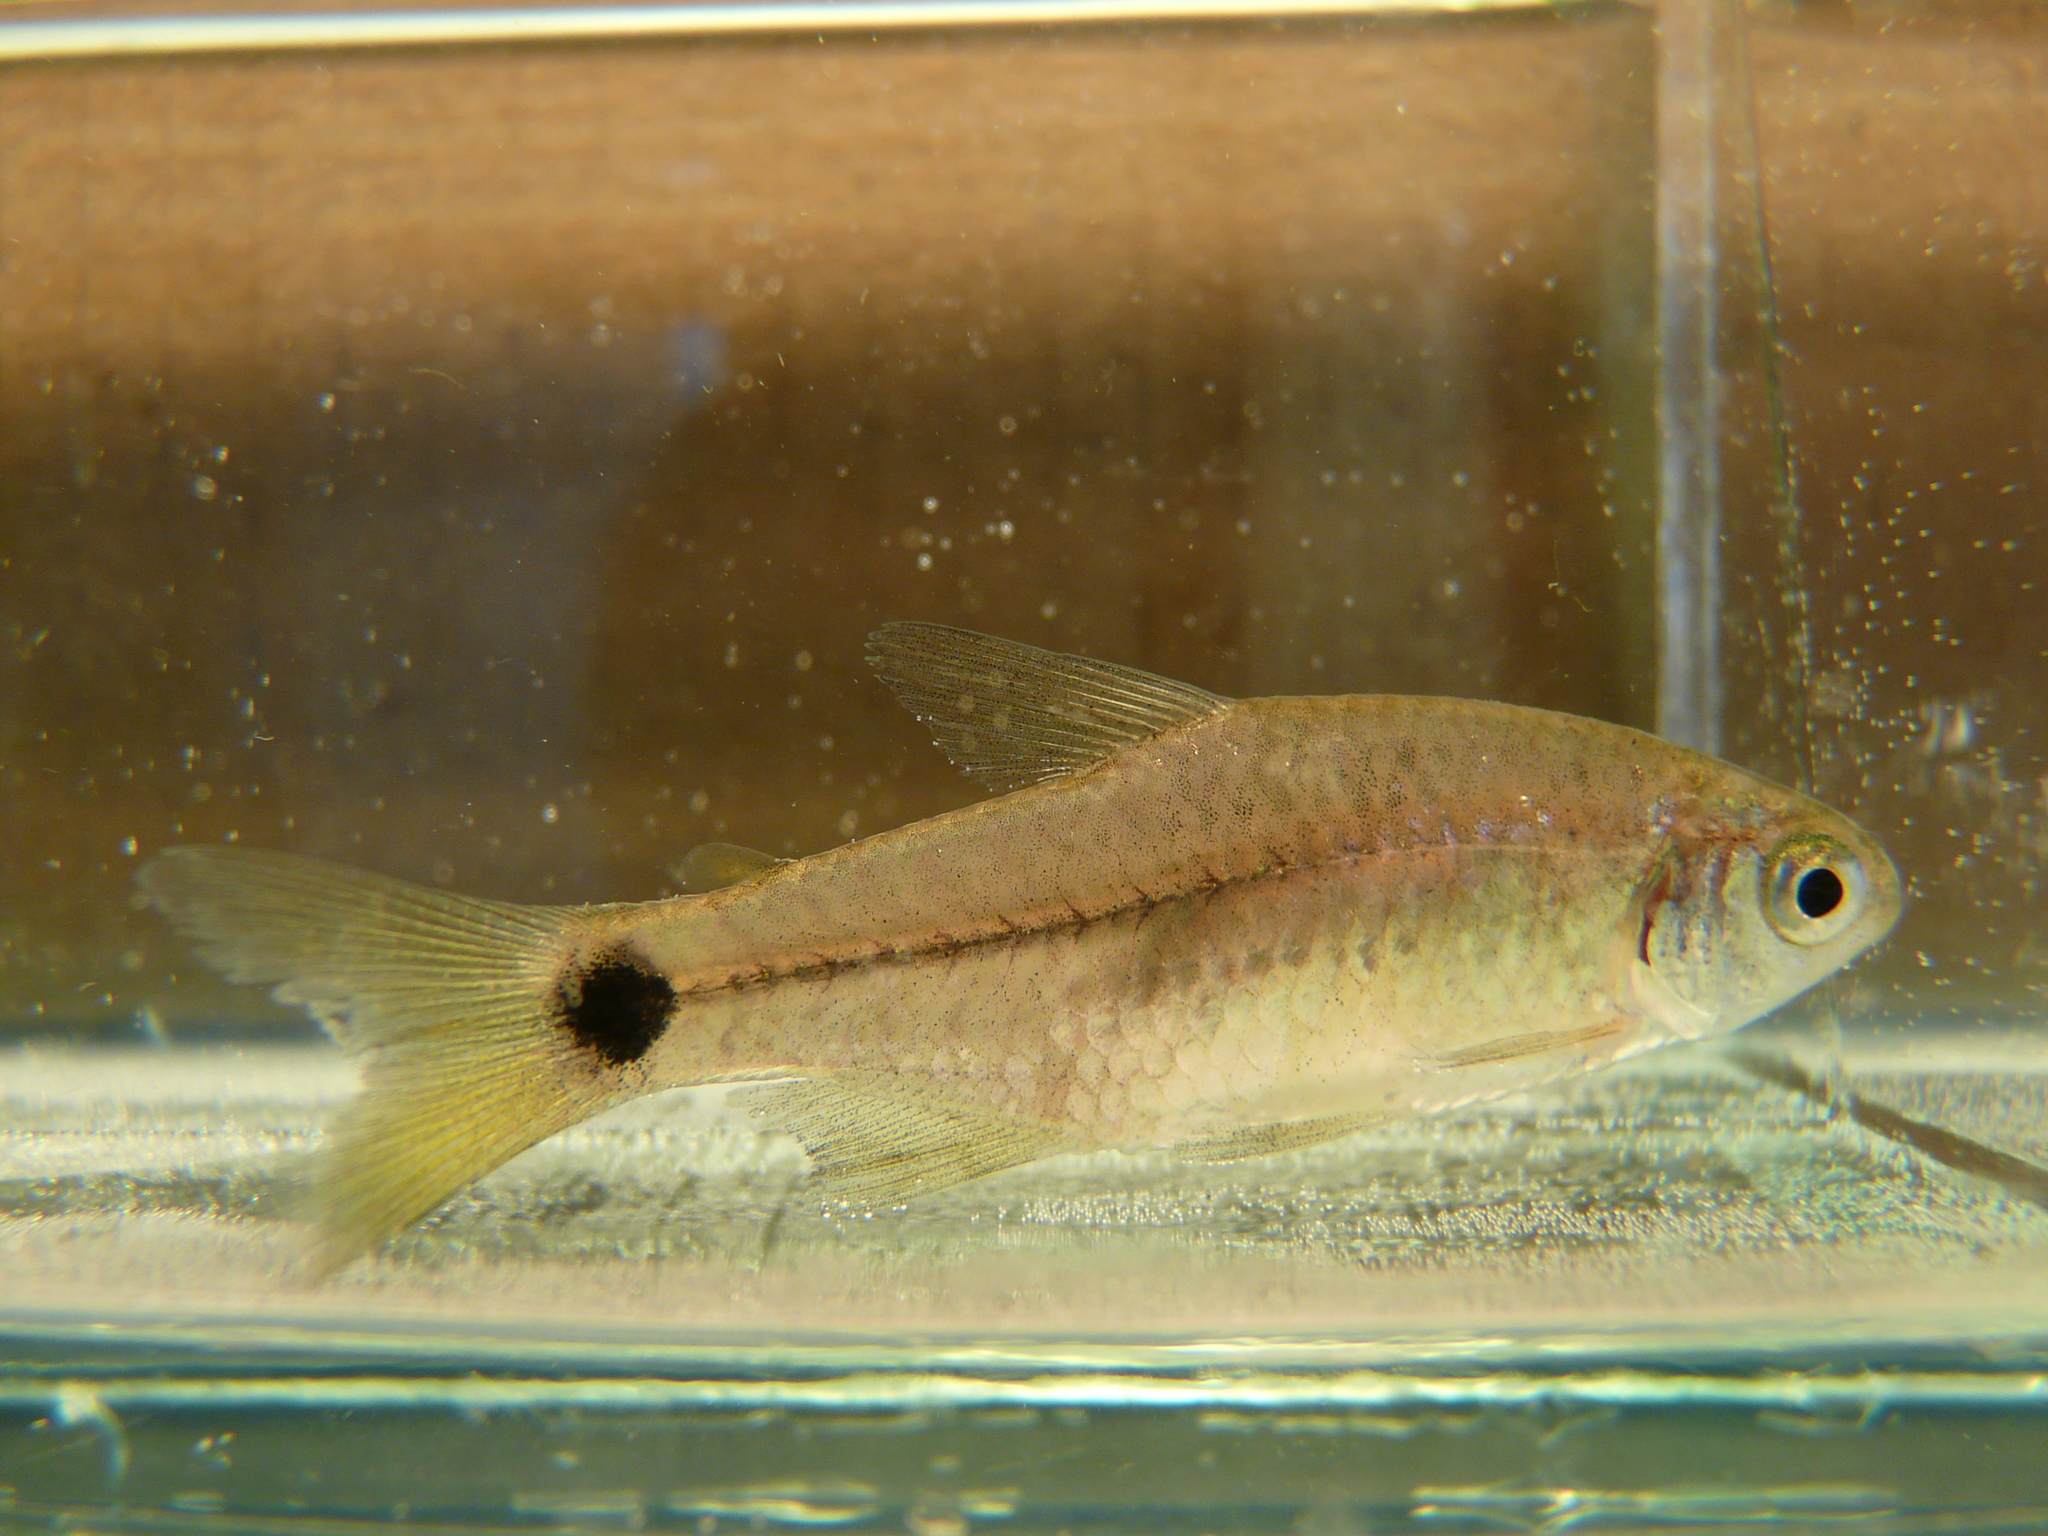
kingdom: Animalia
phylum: Chordata
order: Characiformes
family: Characidae
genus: Cheirodon
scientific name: Cheirodon interruptus
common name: Uruguay tetra
